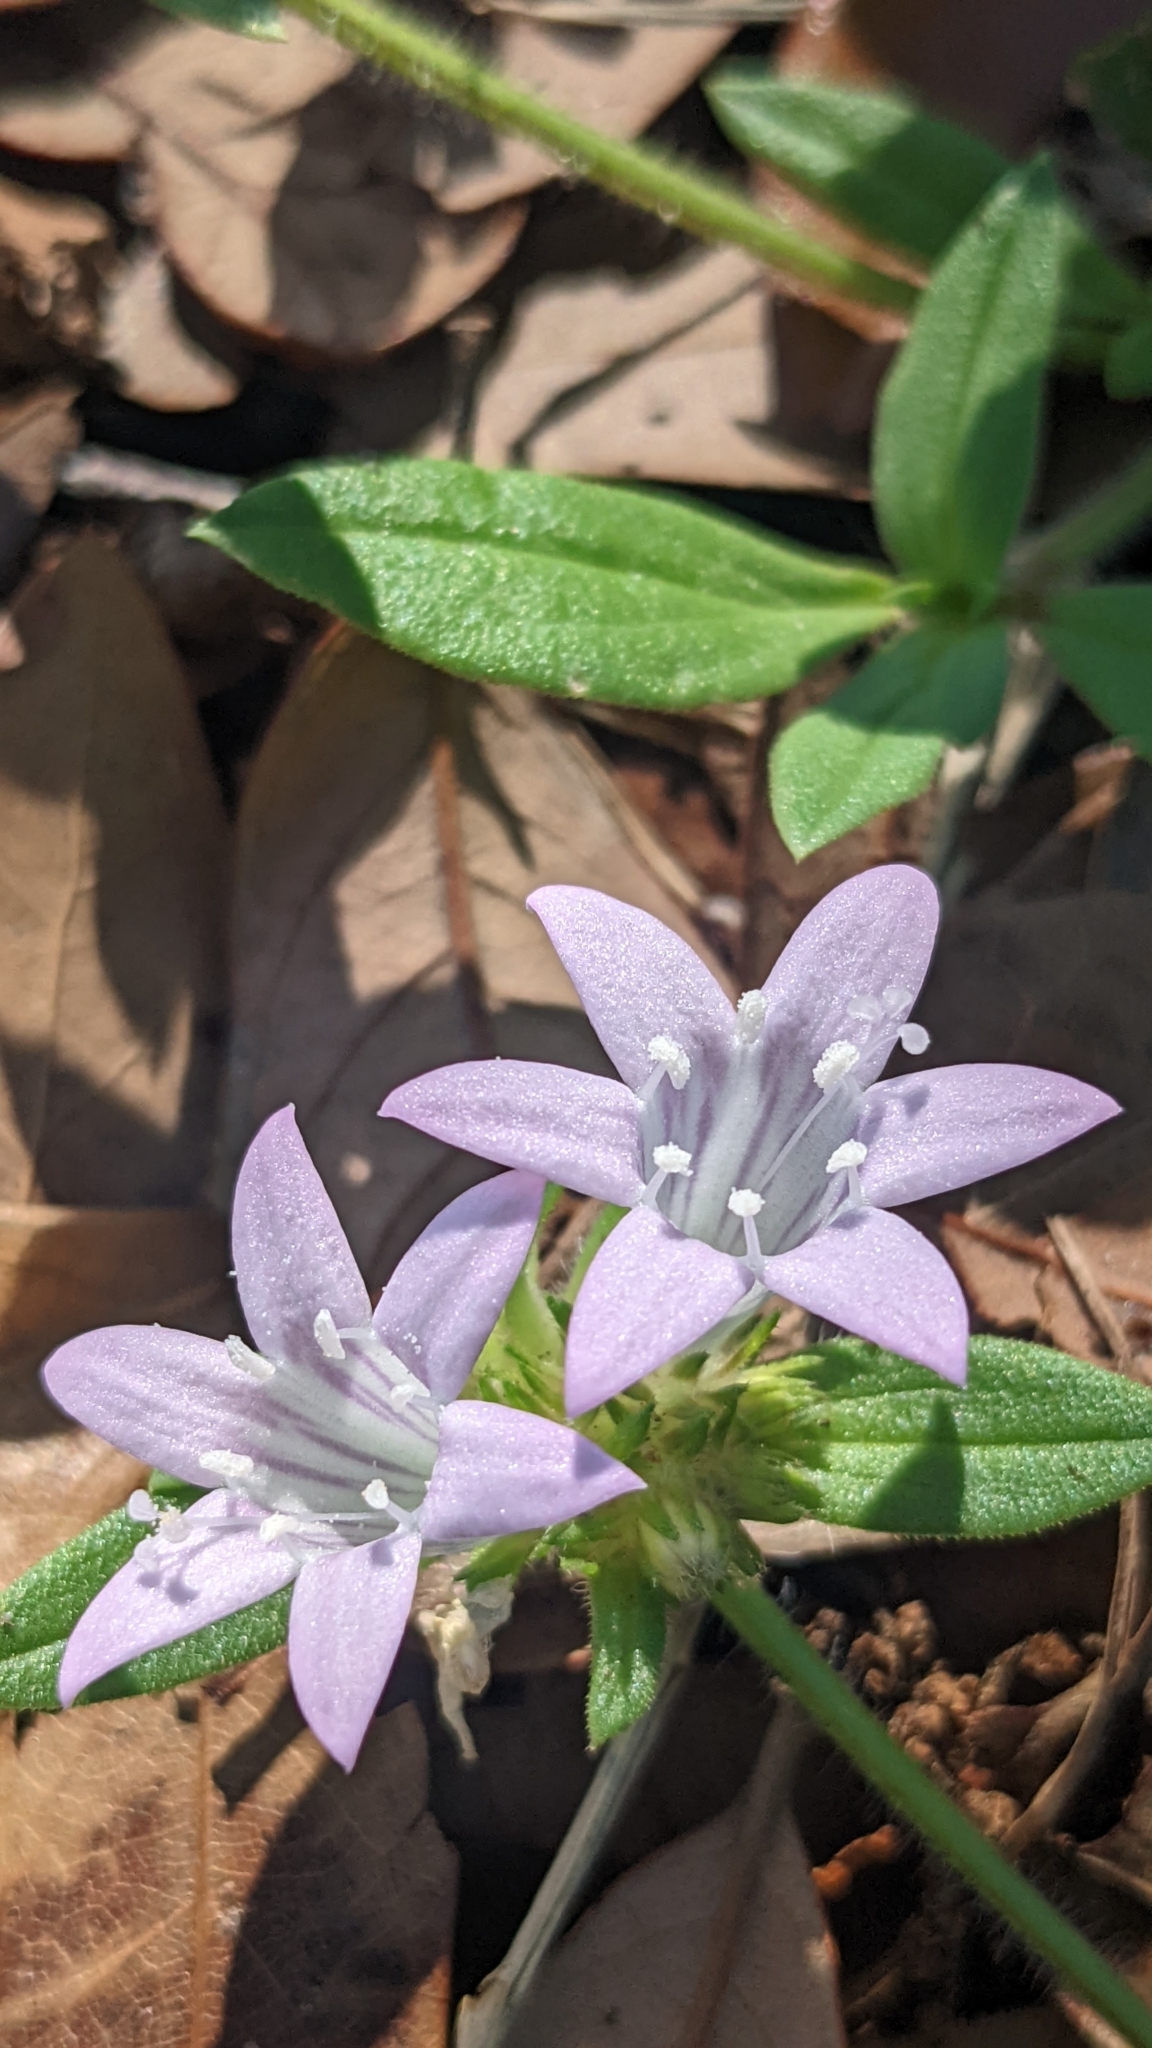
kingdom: Plantae
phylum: Tracheophyta
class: Magnoliopsida
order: Gentianales
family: Rubiaceae
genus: Richardia
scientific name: Richardia grandiflora
